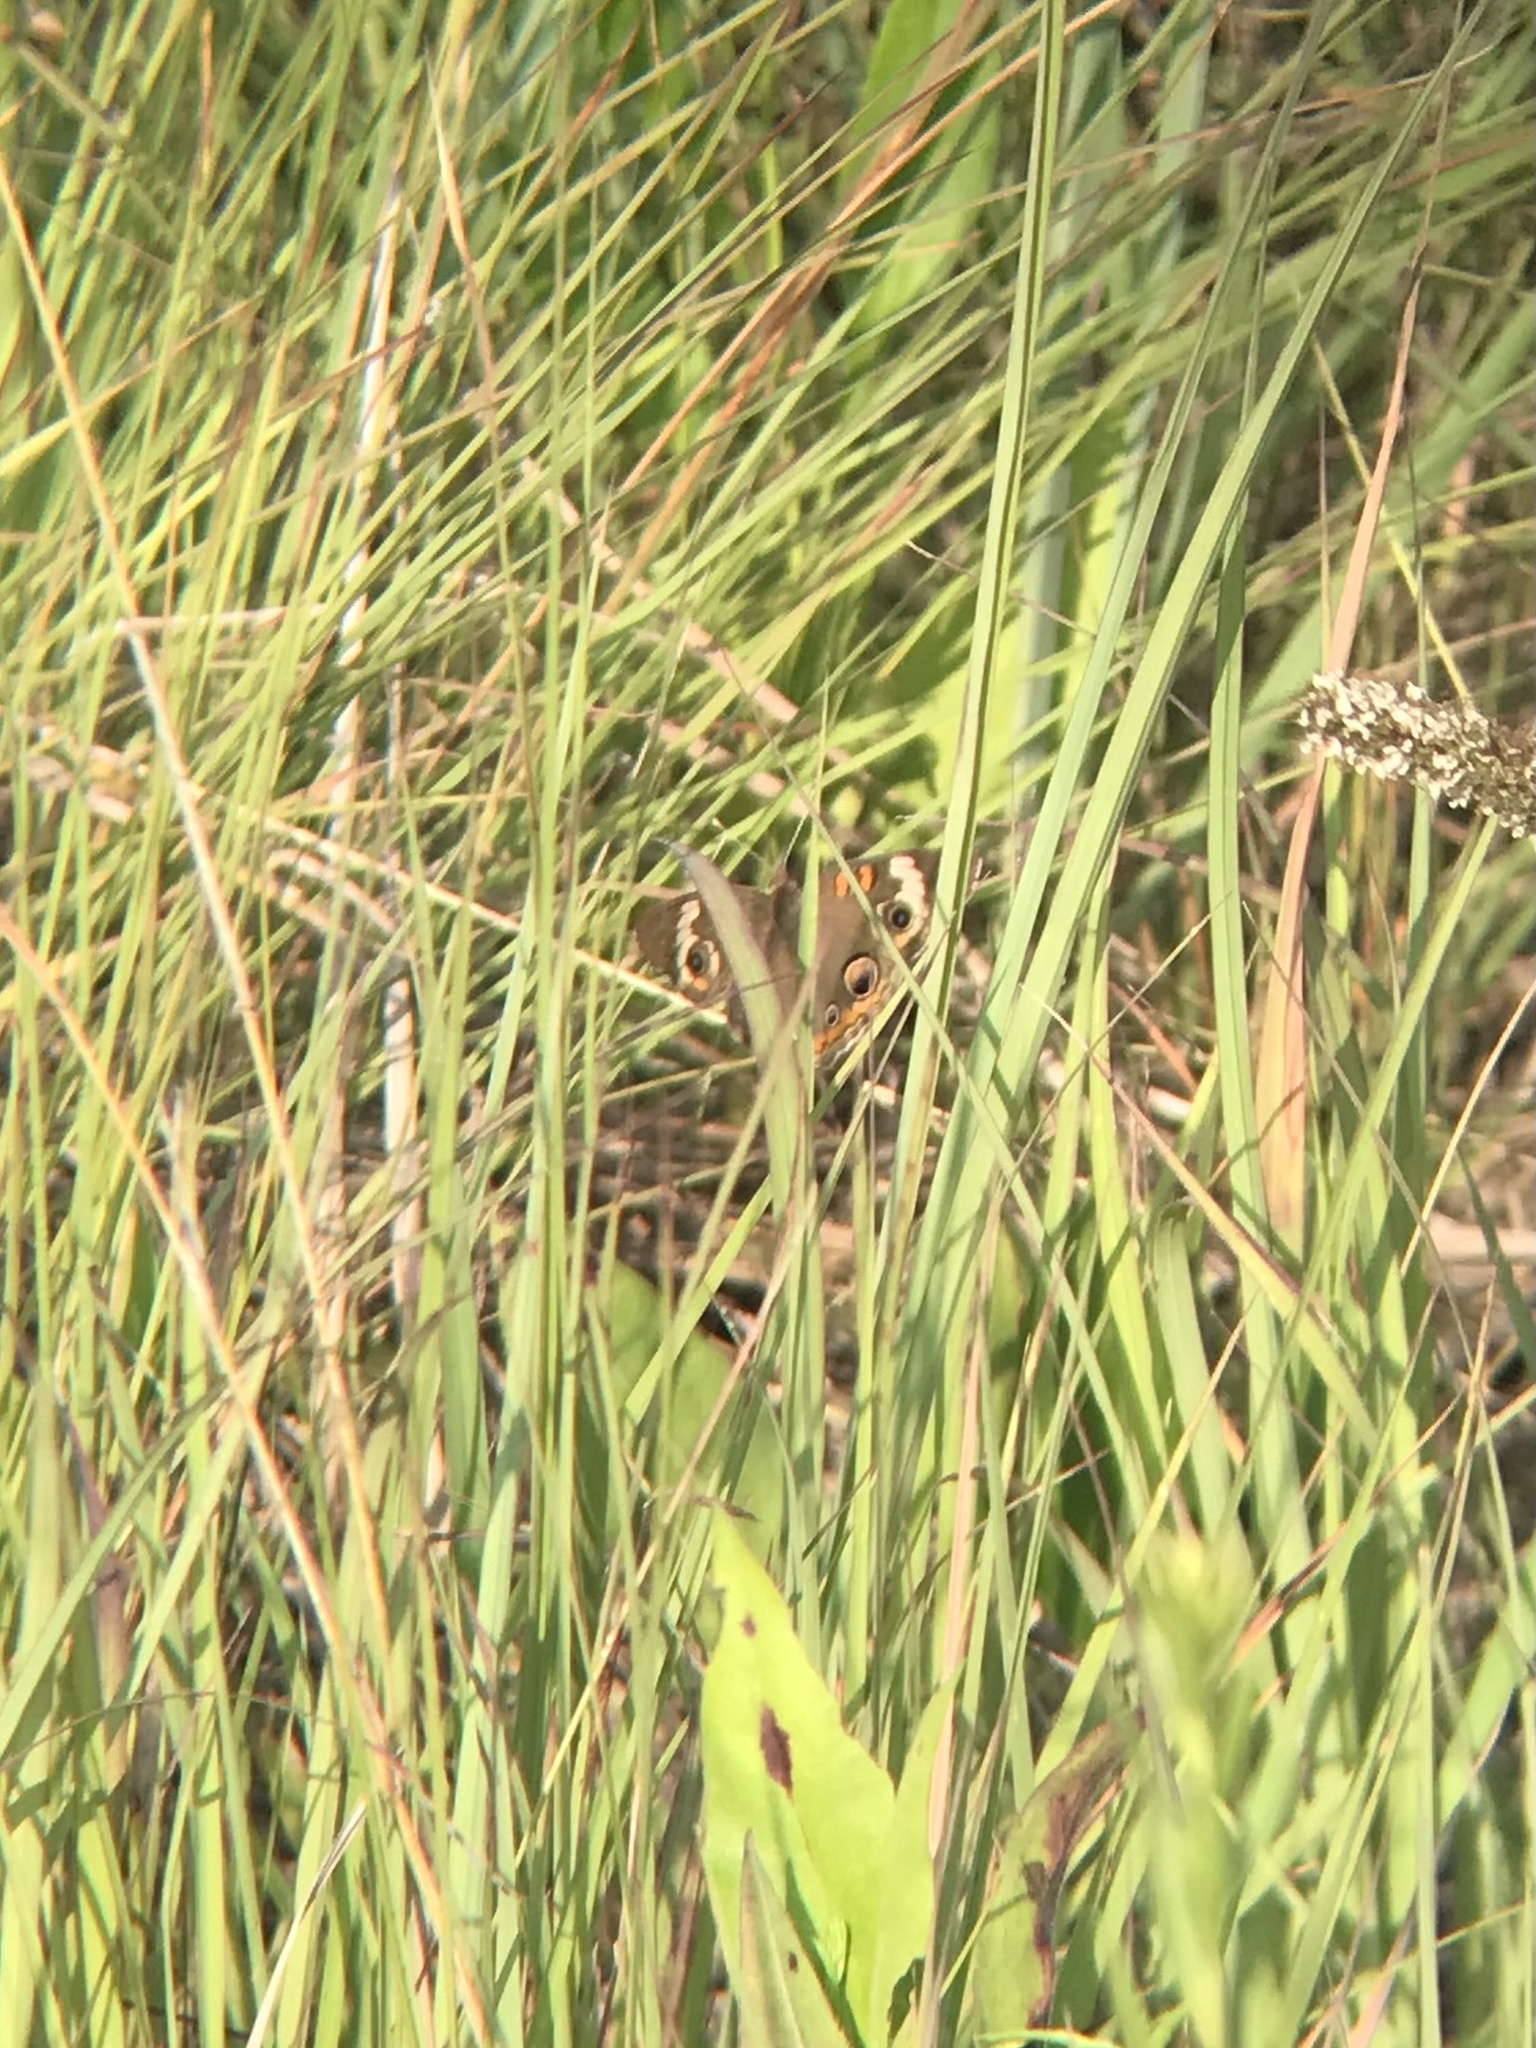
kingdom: Animalia
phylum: Arthropoda
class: Insecta
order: Lepidoptera
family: Nymphalidae
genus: Junonia
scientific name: Junonia coenia
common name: Common buckeye
